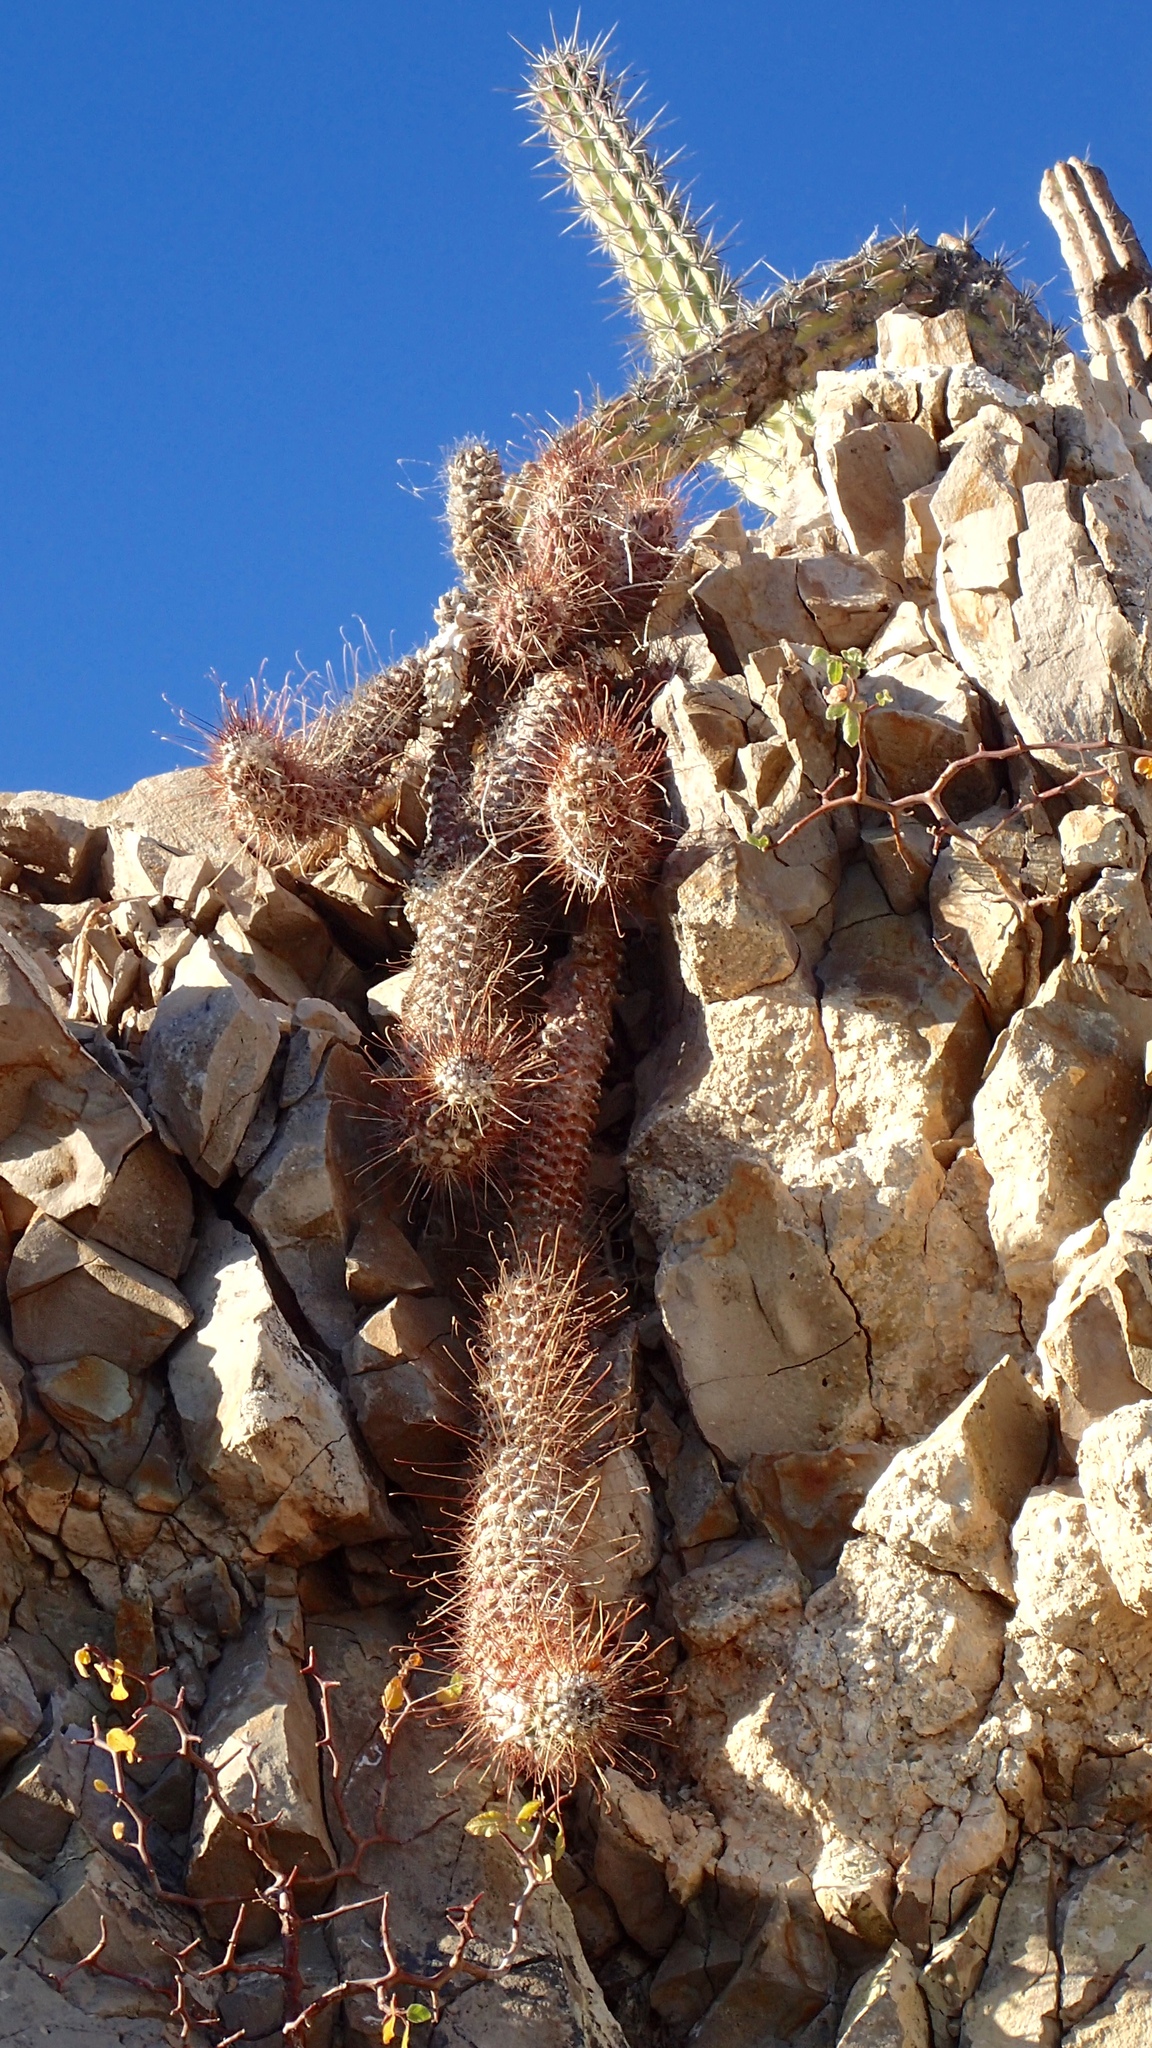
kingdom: Plantae
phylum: Tracheophyta
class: Magnoliopsida
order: Caryophyllales
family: Cactaceae
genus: Cochemiea
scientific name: Cochemiea poselgeri
